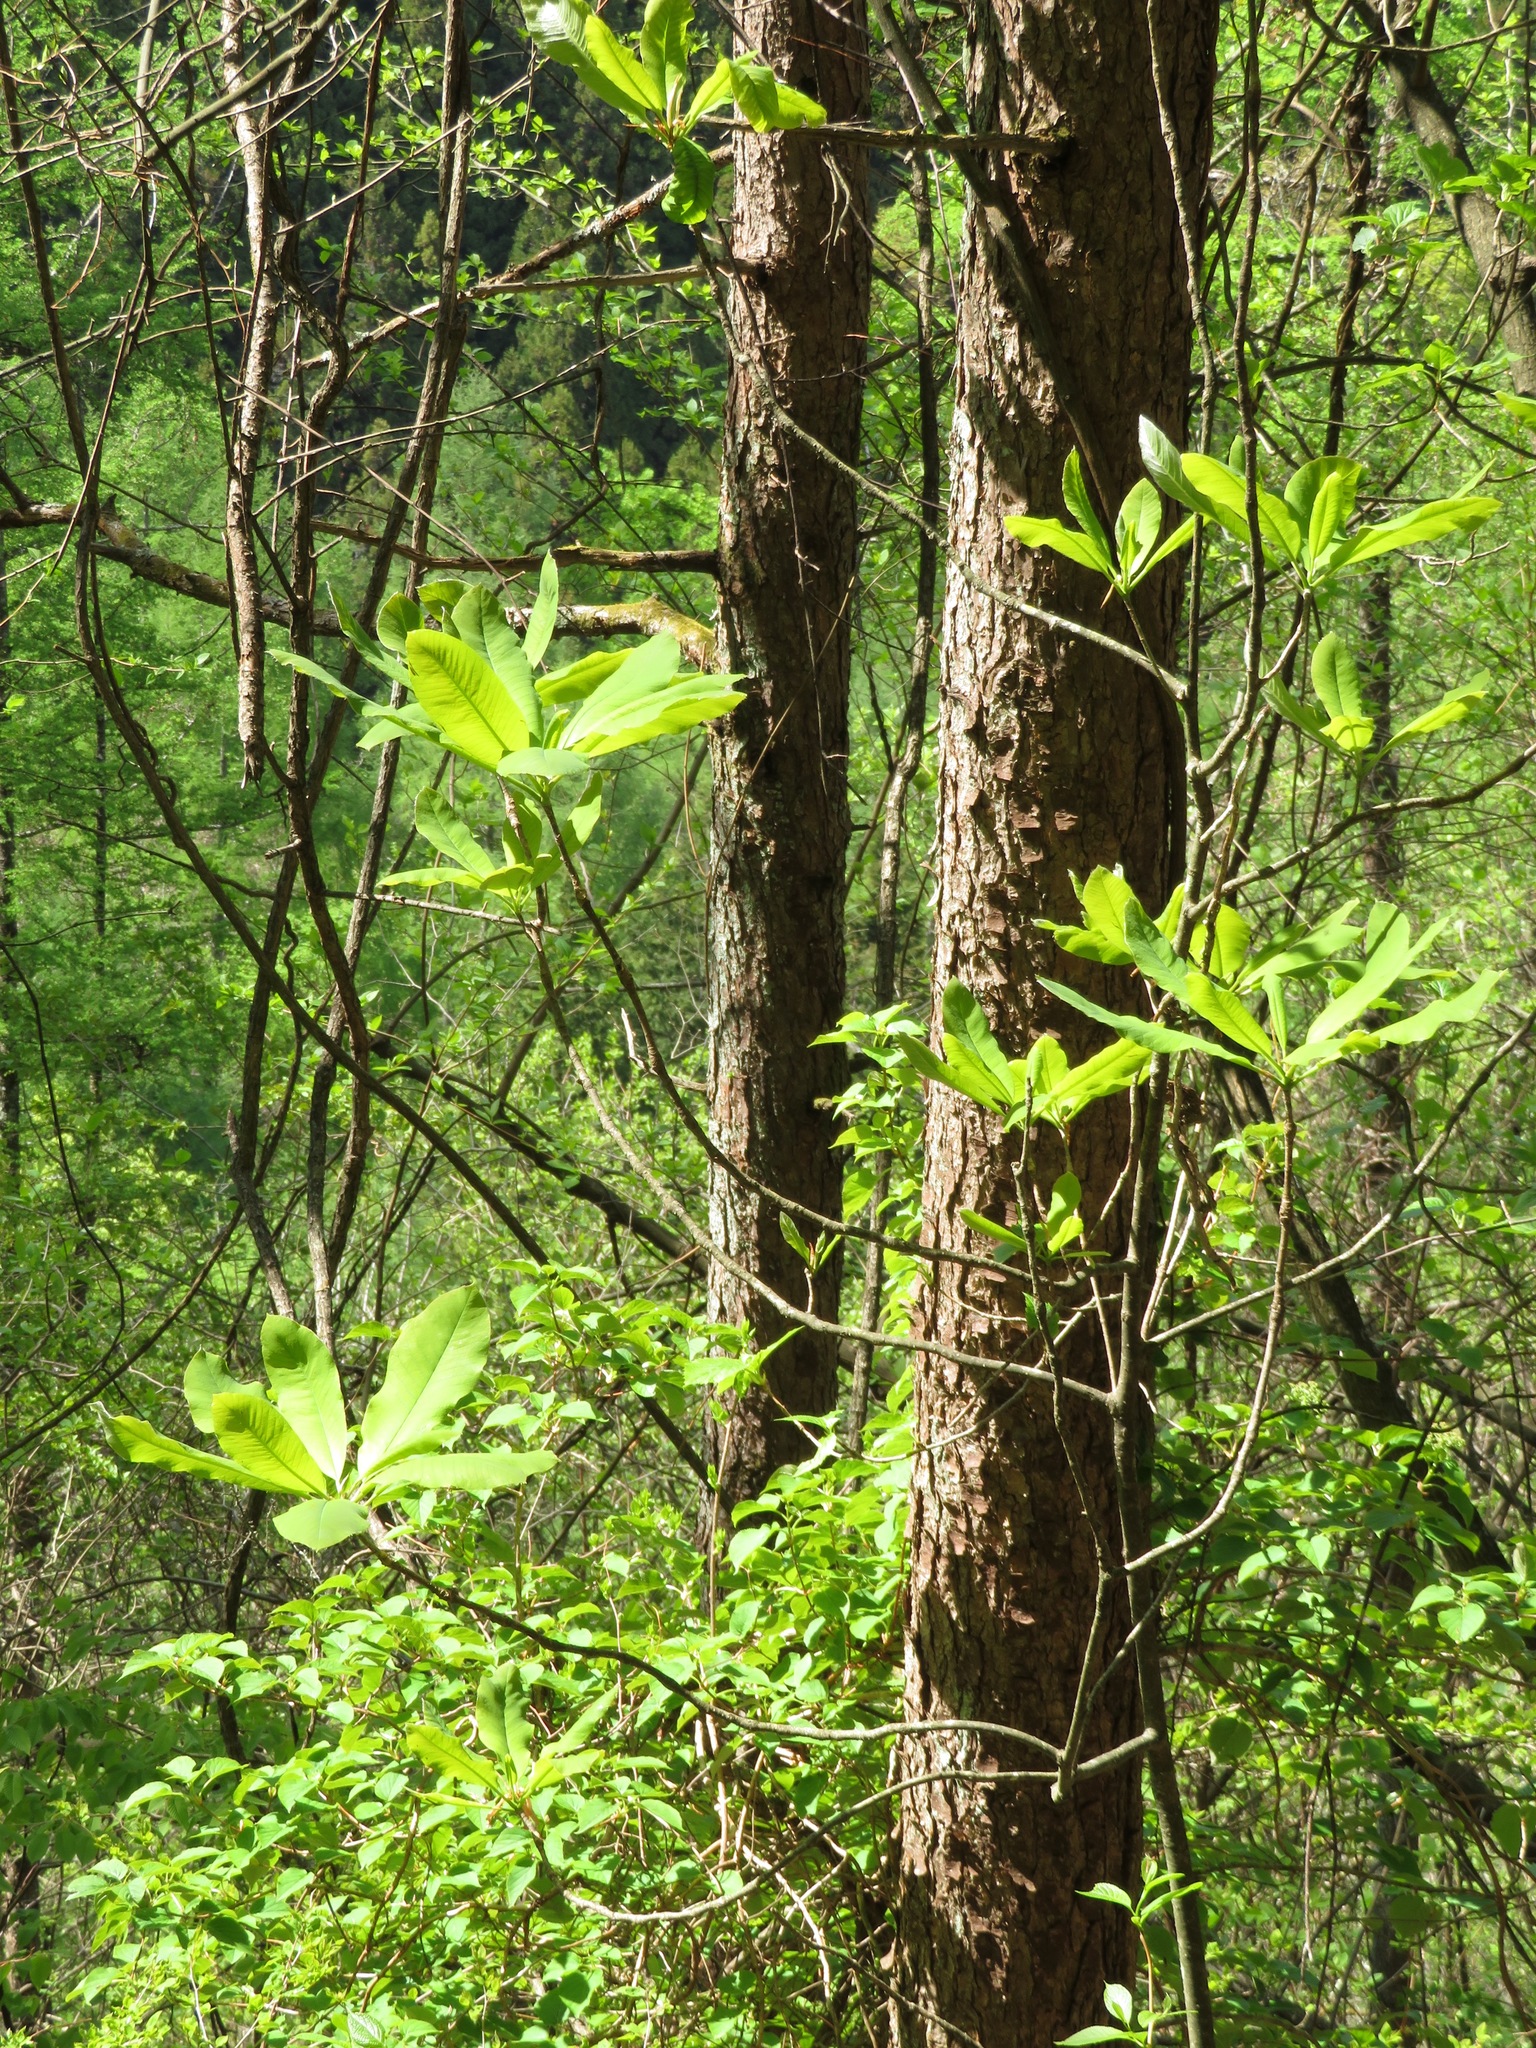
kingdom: Plantae
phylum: Tracheophyta
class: Magnoliopsida
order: Magnoliales
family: Magnoliaceae
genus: Magnolia
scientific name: Magnolia obovata
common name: Japanese whitebark magnolia
